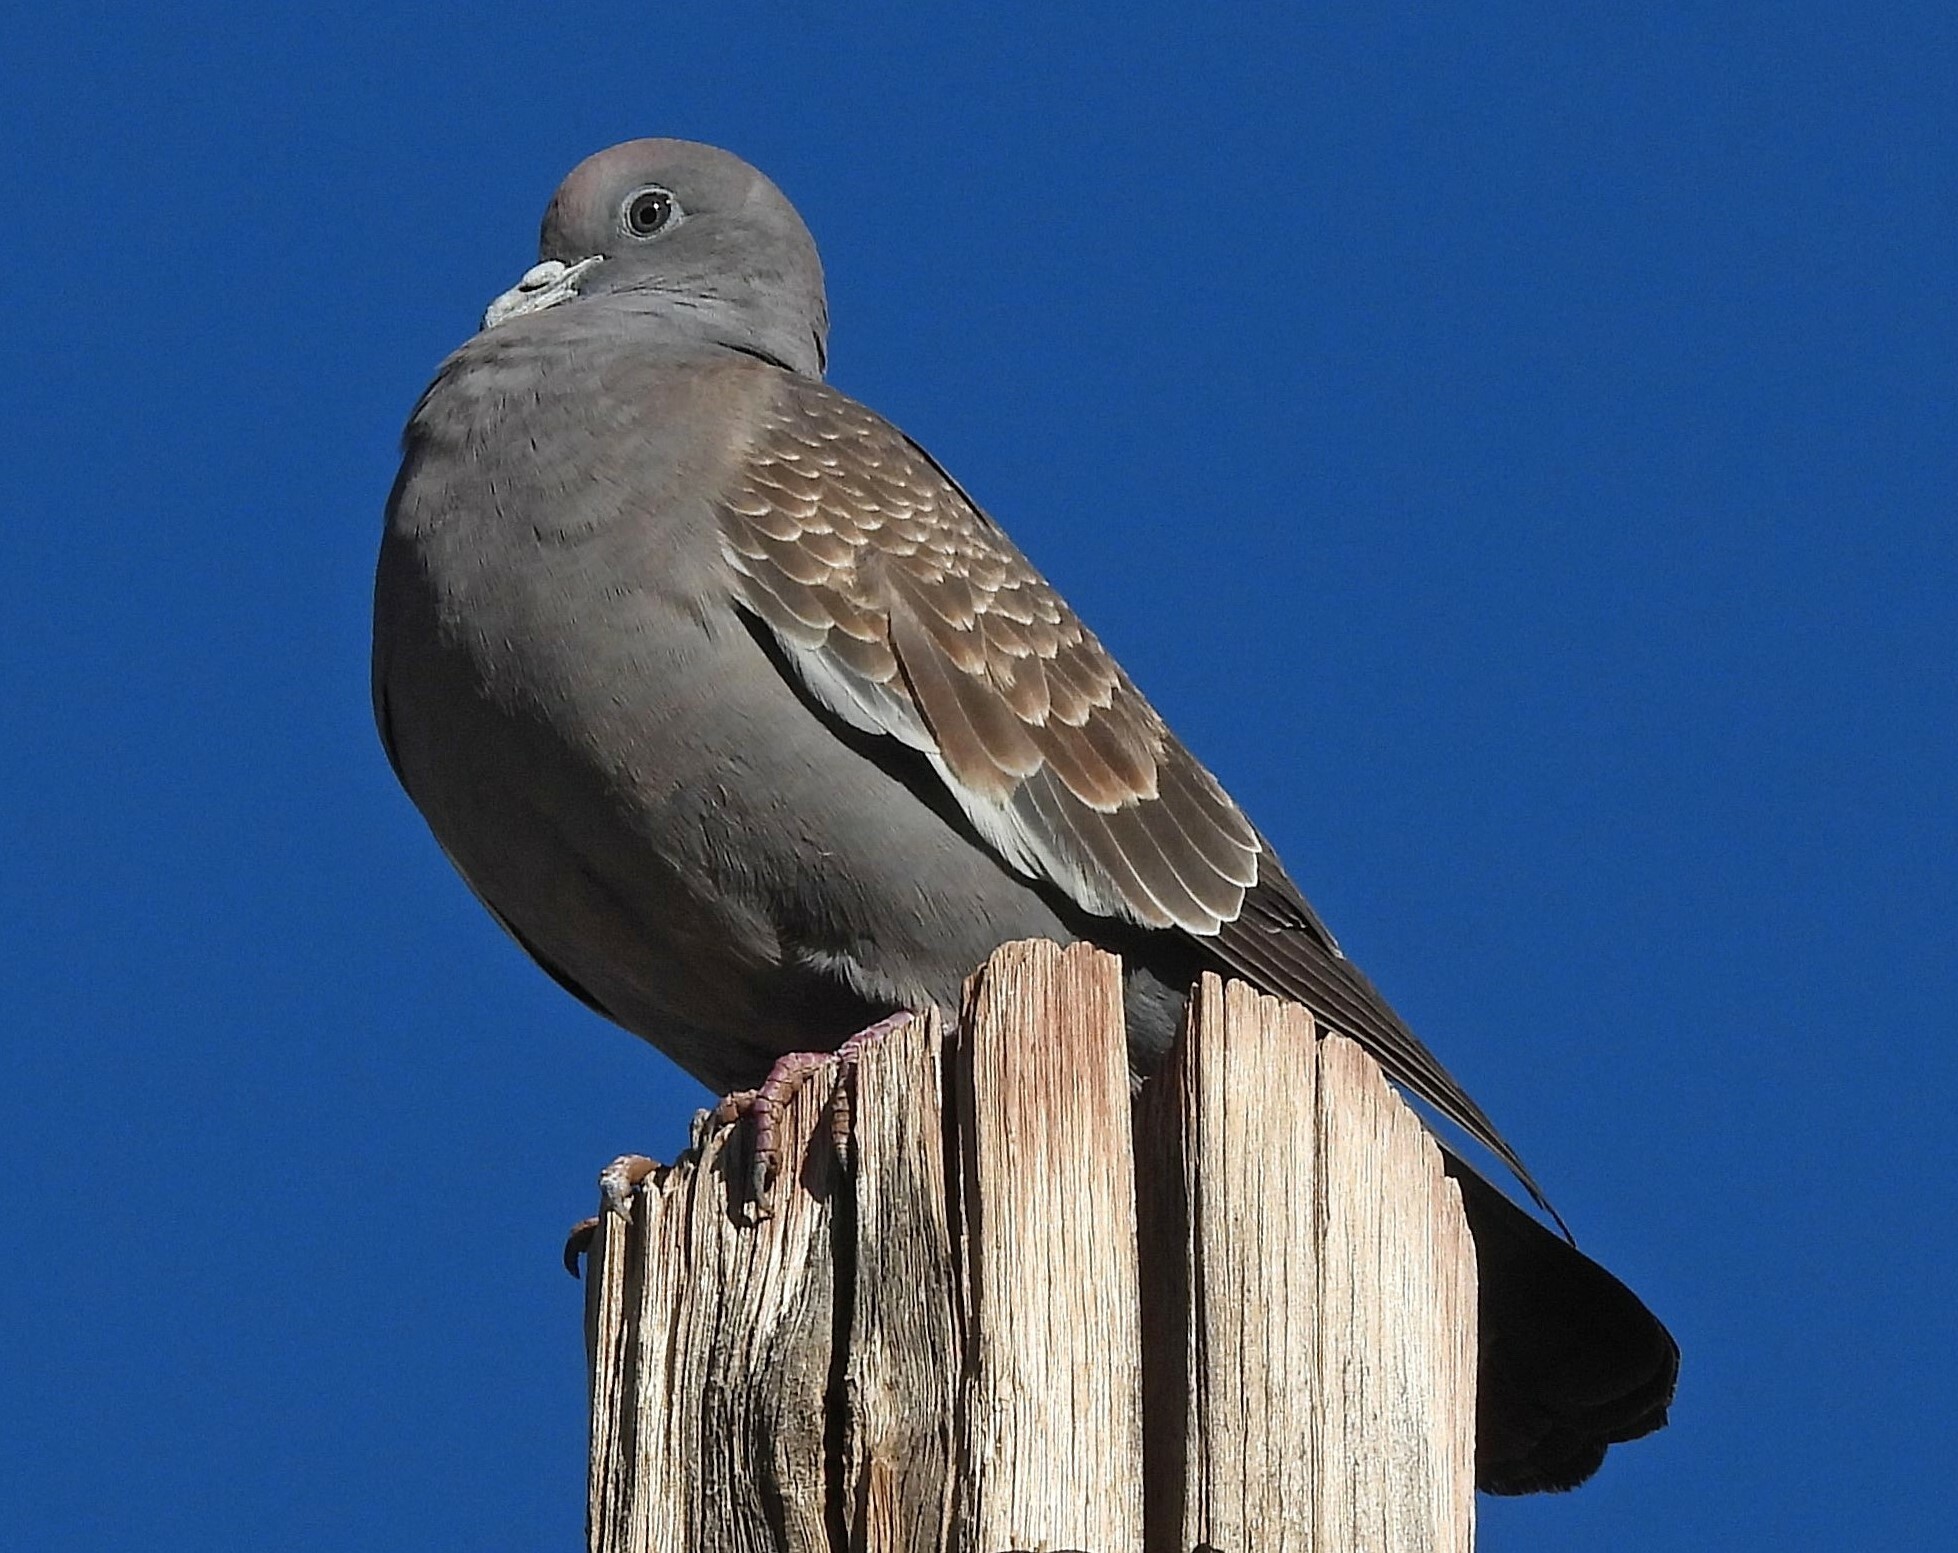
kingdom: Animalia
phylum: Chordata
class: Aves
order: Columbiformes
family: Columbidae
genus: Patagioenas
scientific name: Patagioenas maculosa
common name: Spot-winged pigeon
